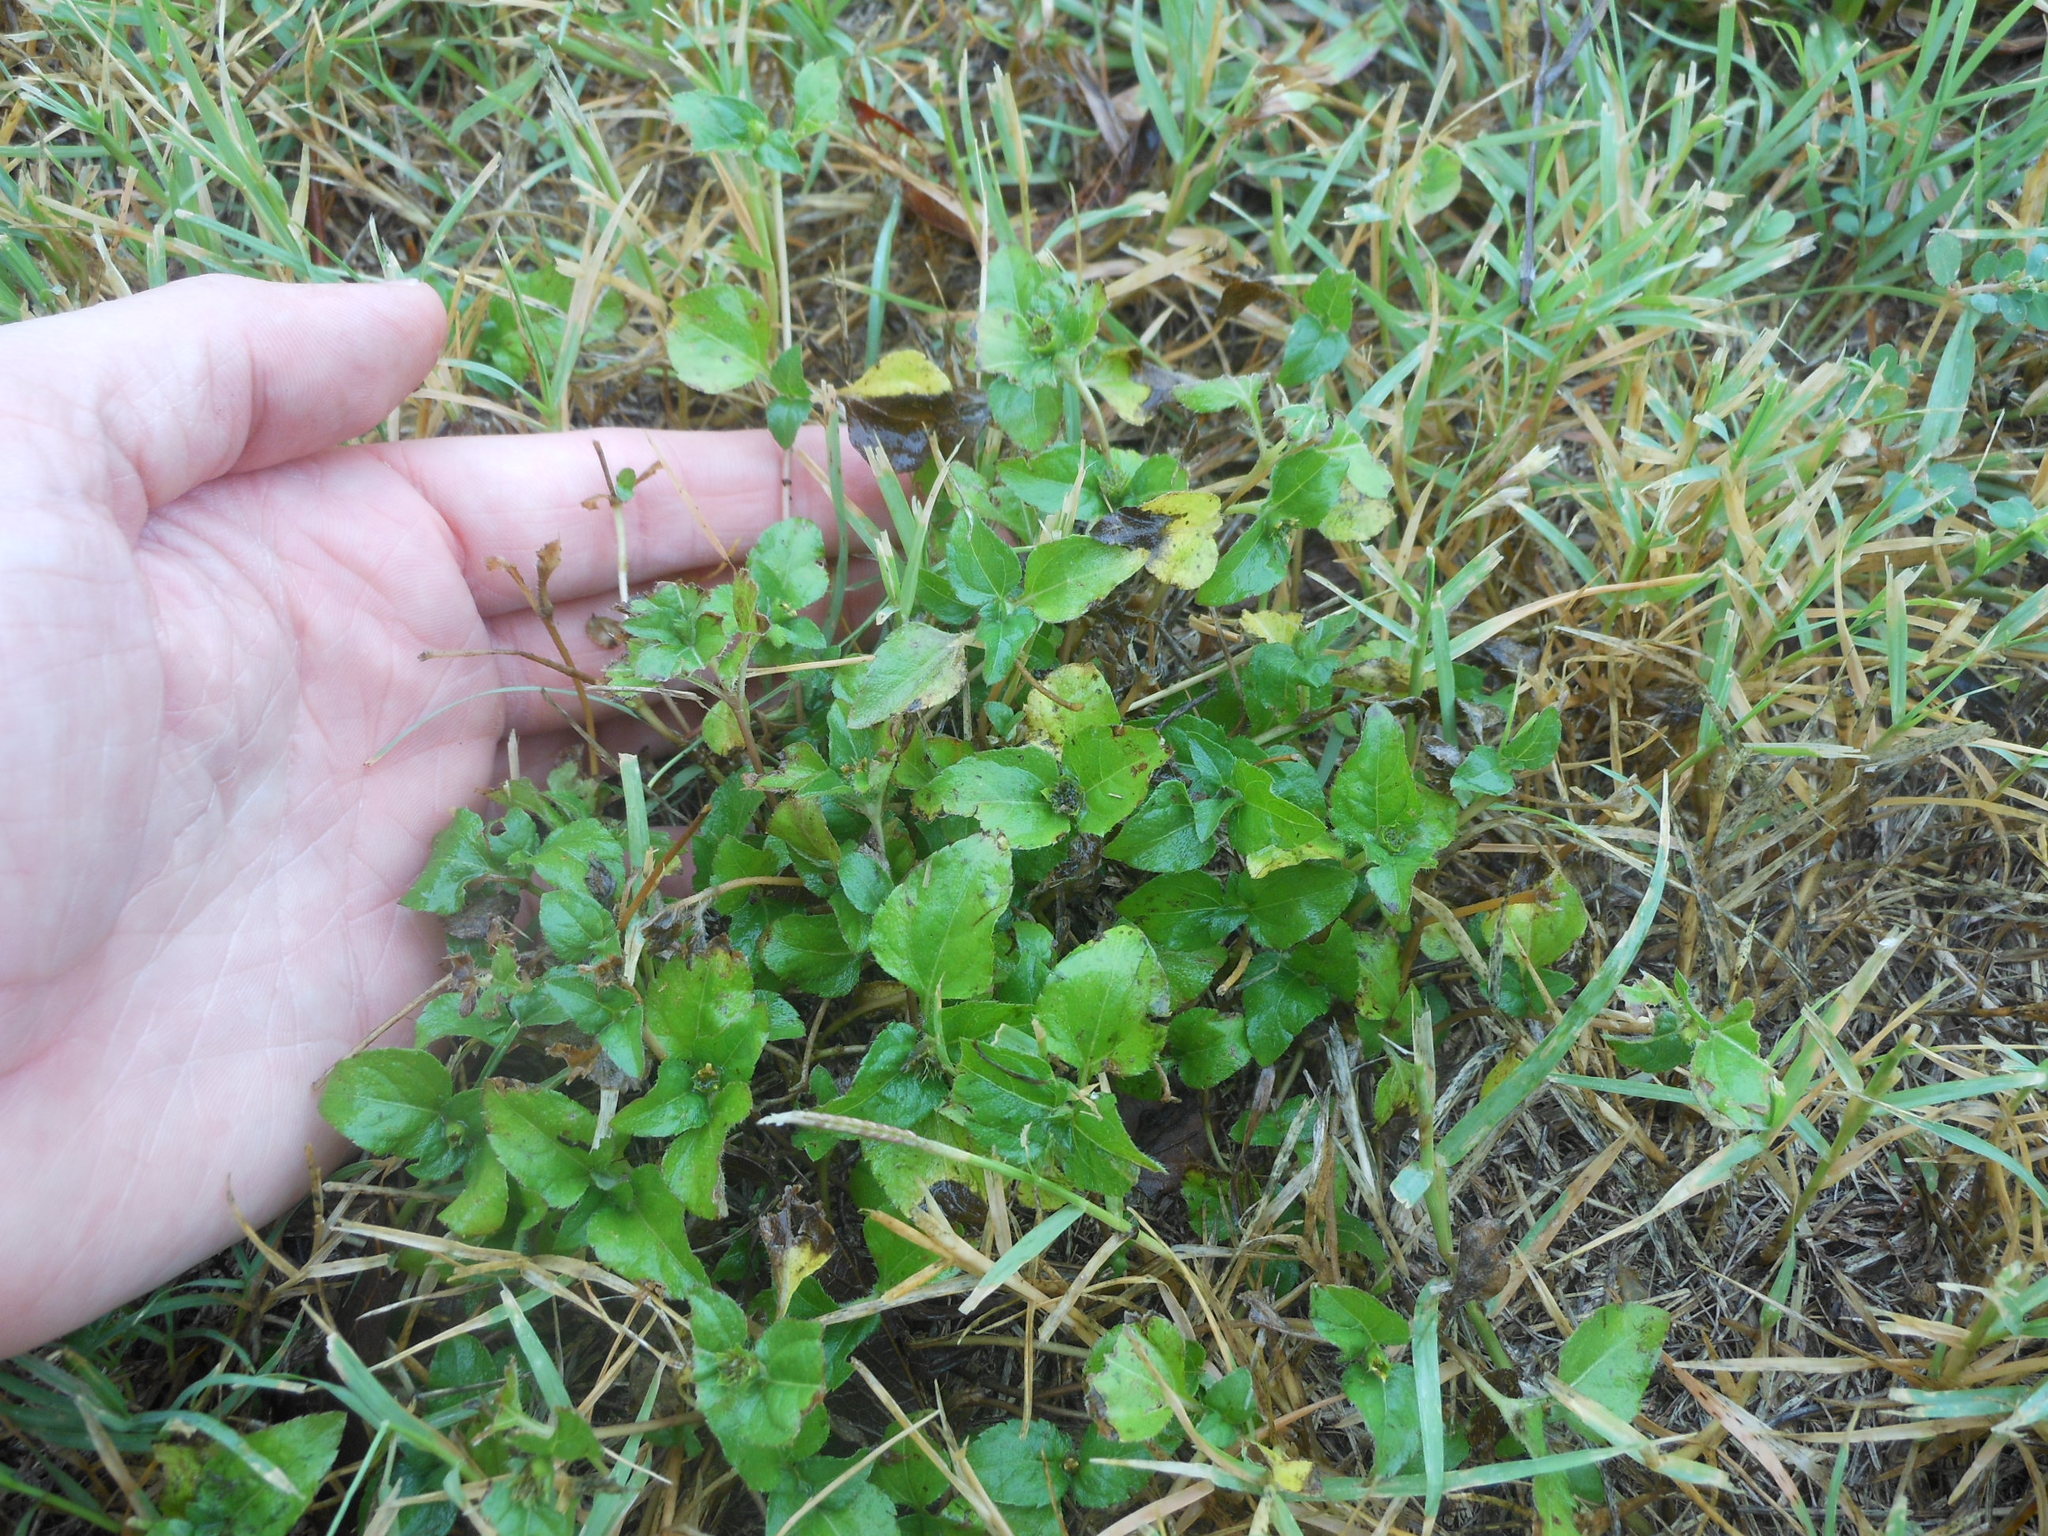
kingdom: Plantae
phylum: Tracheophyta
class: Magnoliopsida
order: Asterales
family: Asteraceae
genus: Calyptocarpus
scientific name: Calyptocarpus vialis
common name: Straggler daisy
